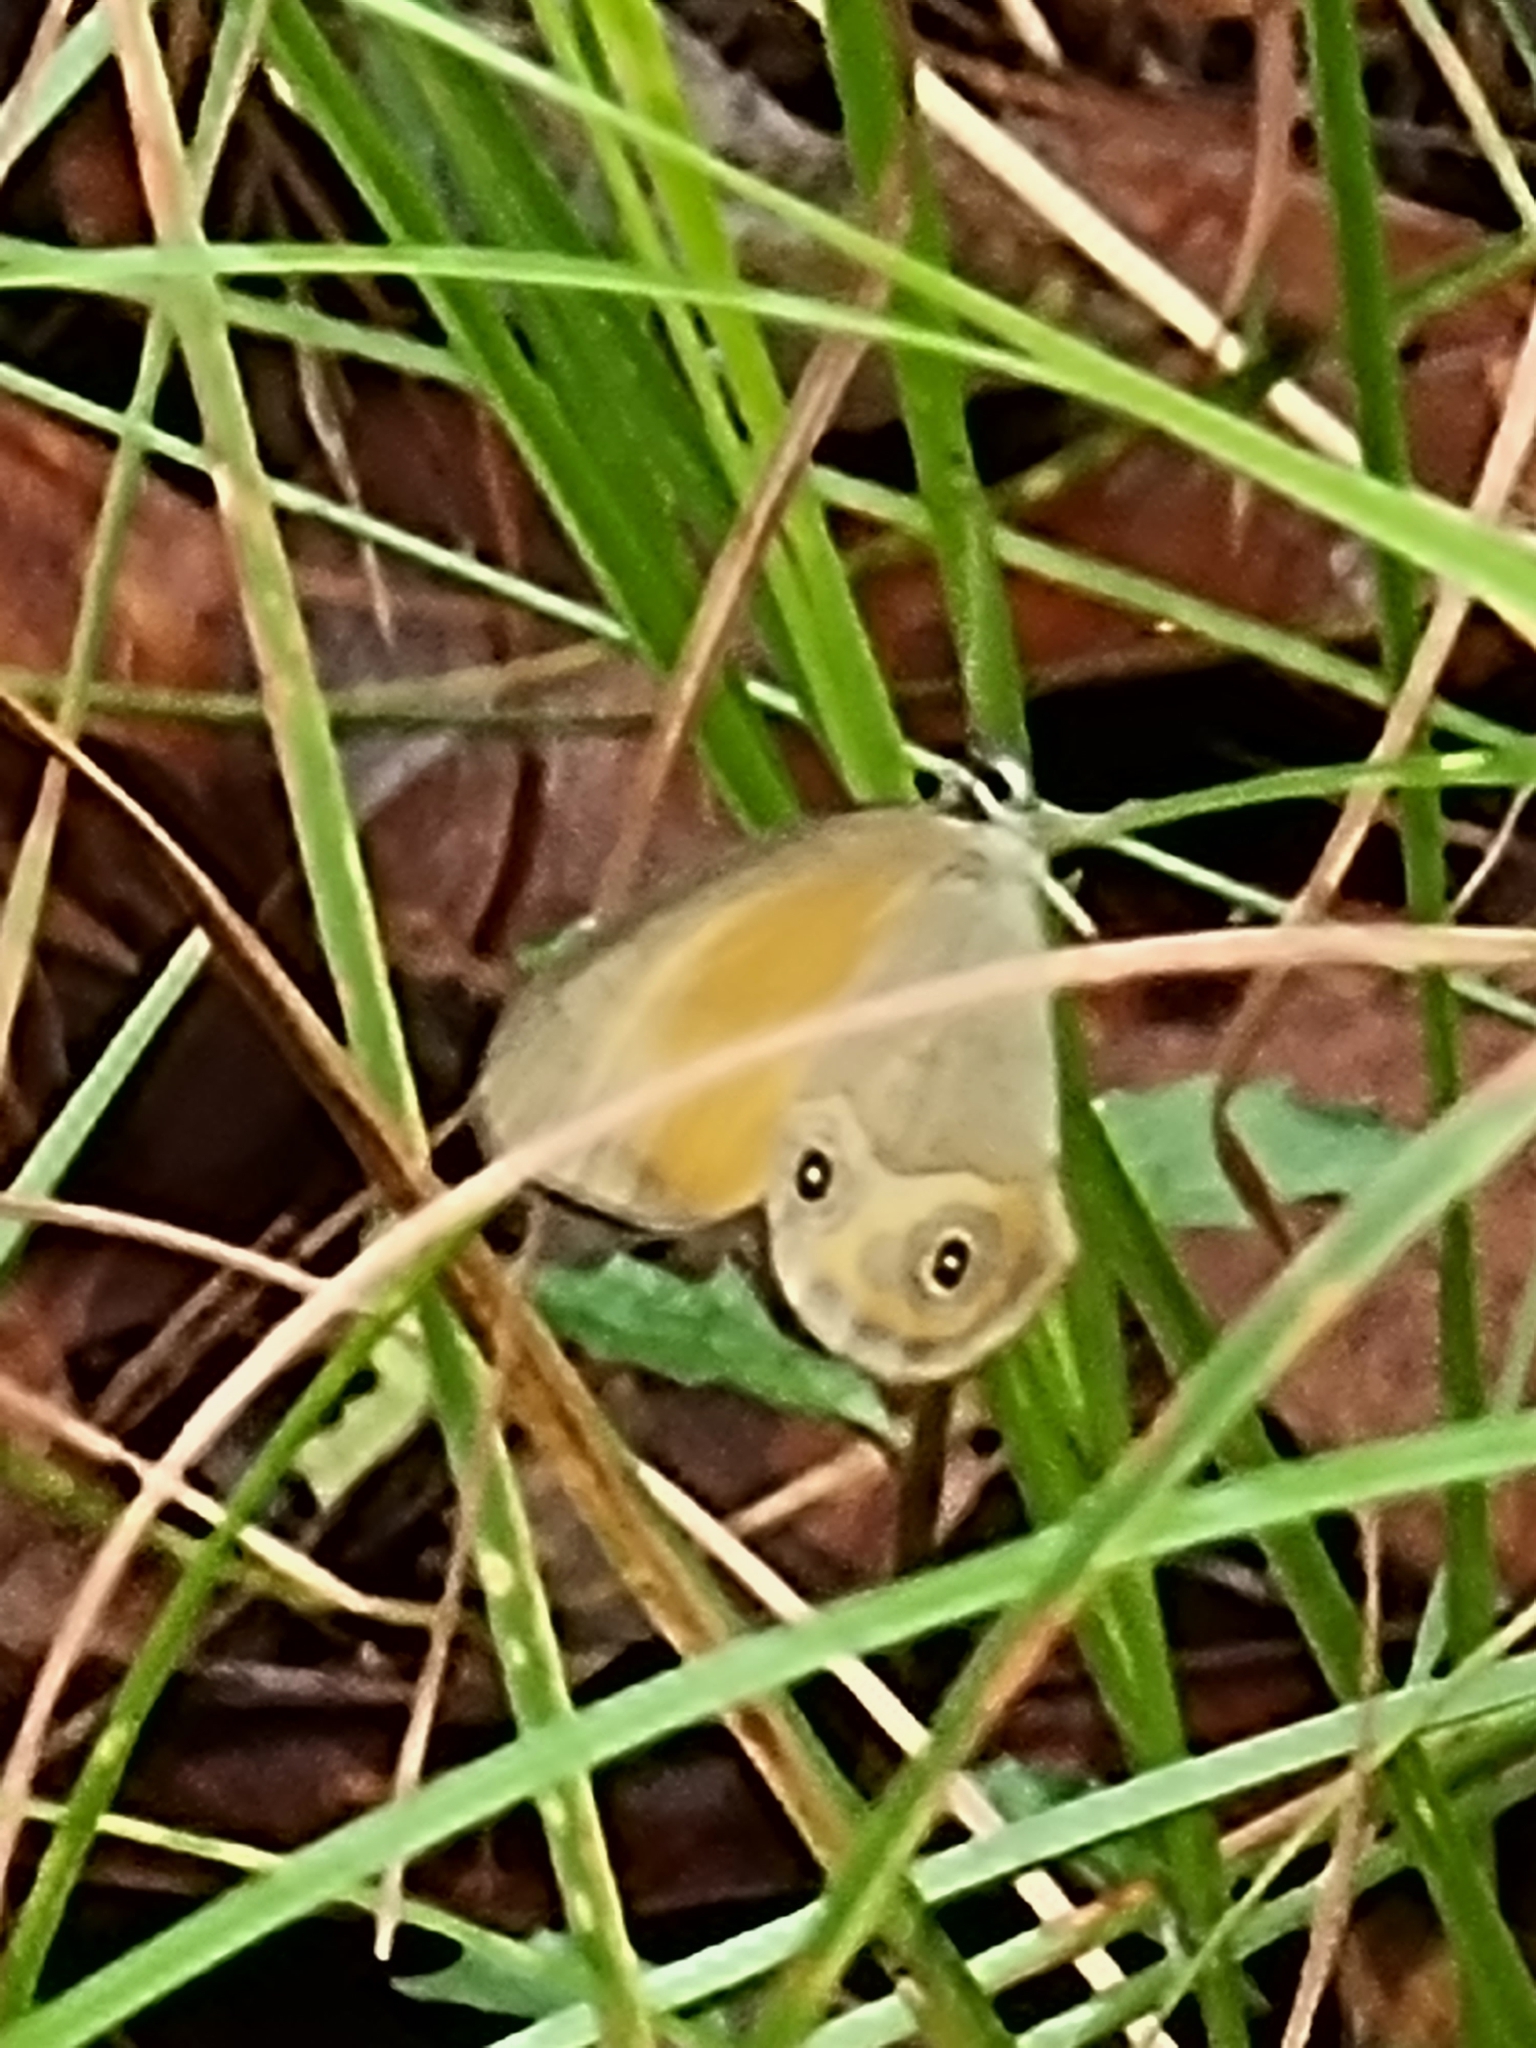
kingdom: Animalia
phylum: Arthropoda
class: Insecta
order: Lepidoptera
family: Nymphalidae
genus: Hypocysta
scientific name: Hypocysta adiante
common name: Orange ringlet
